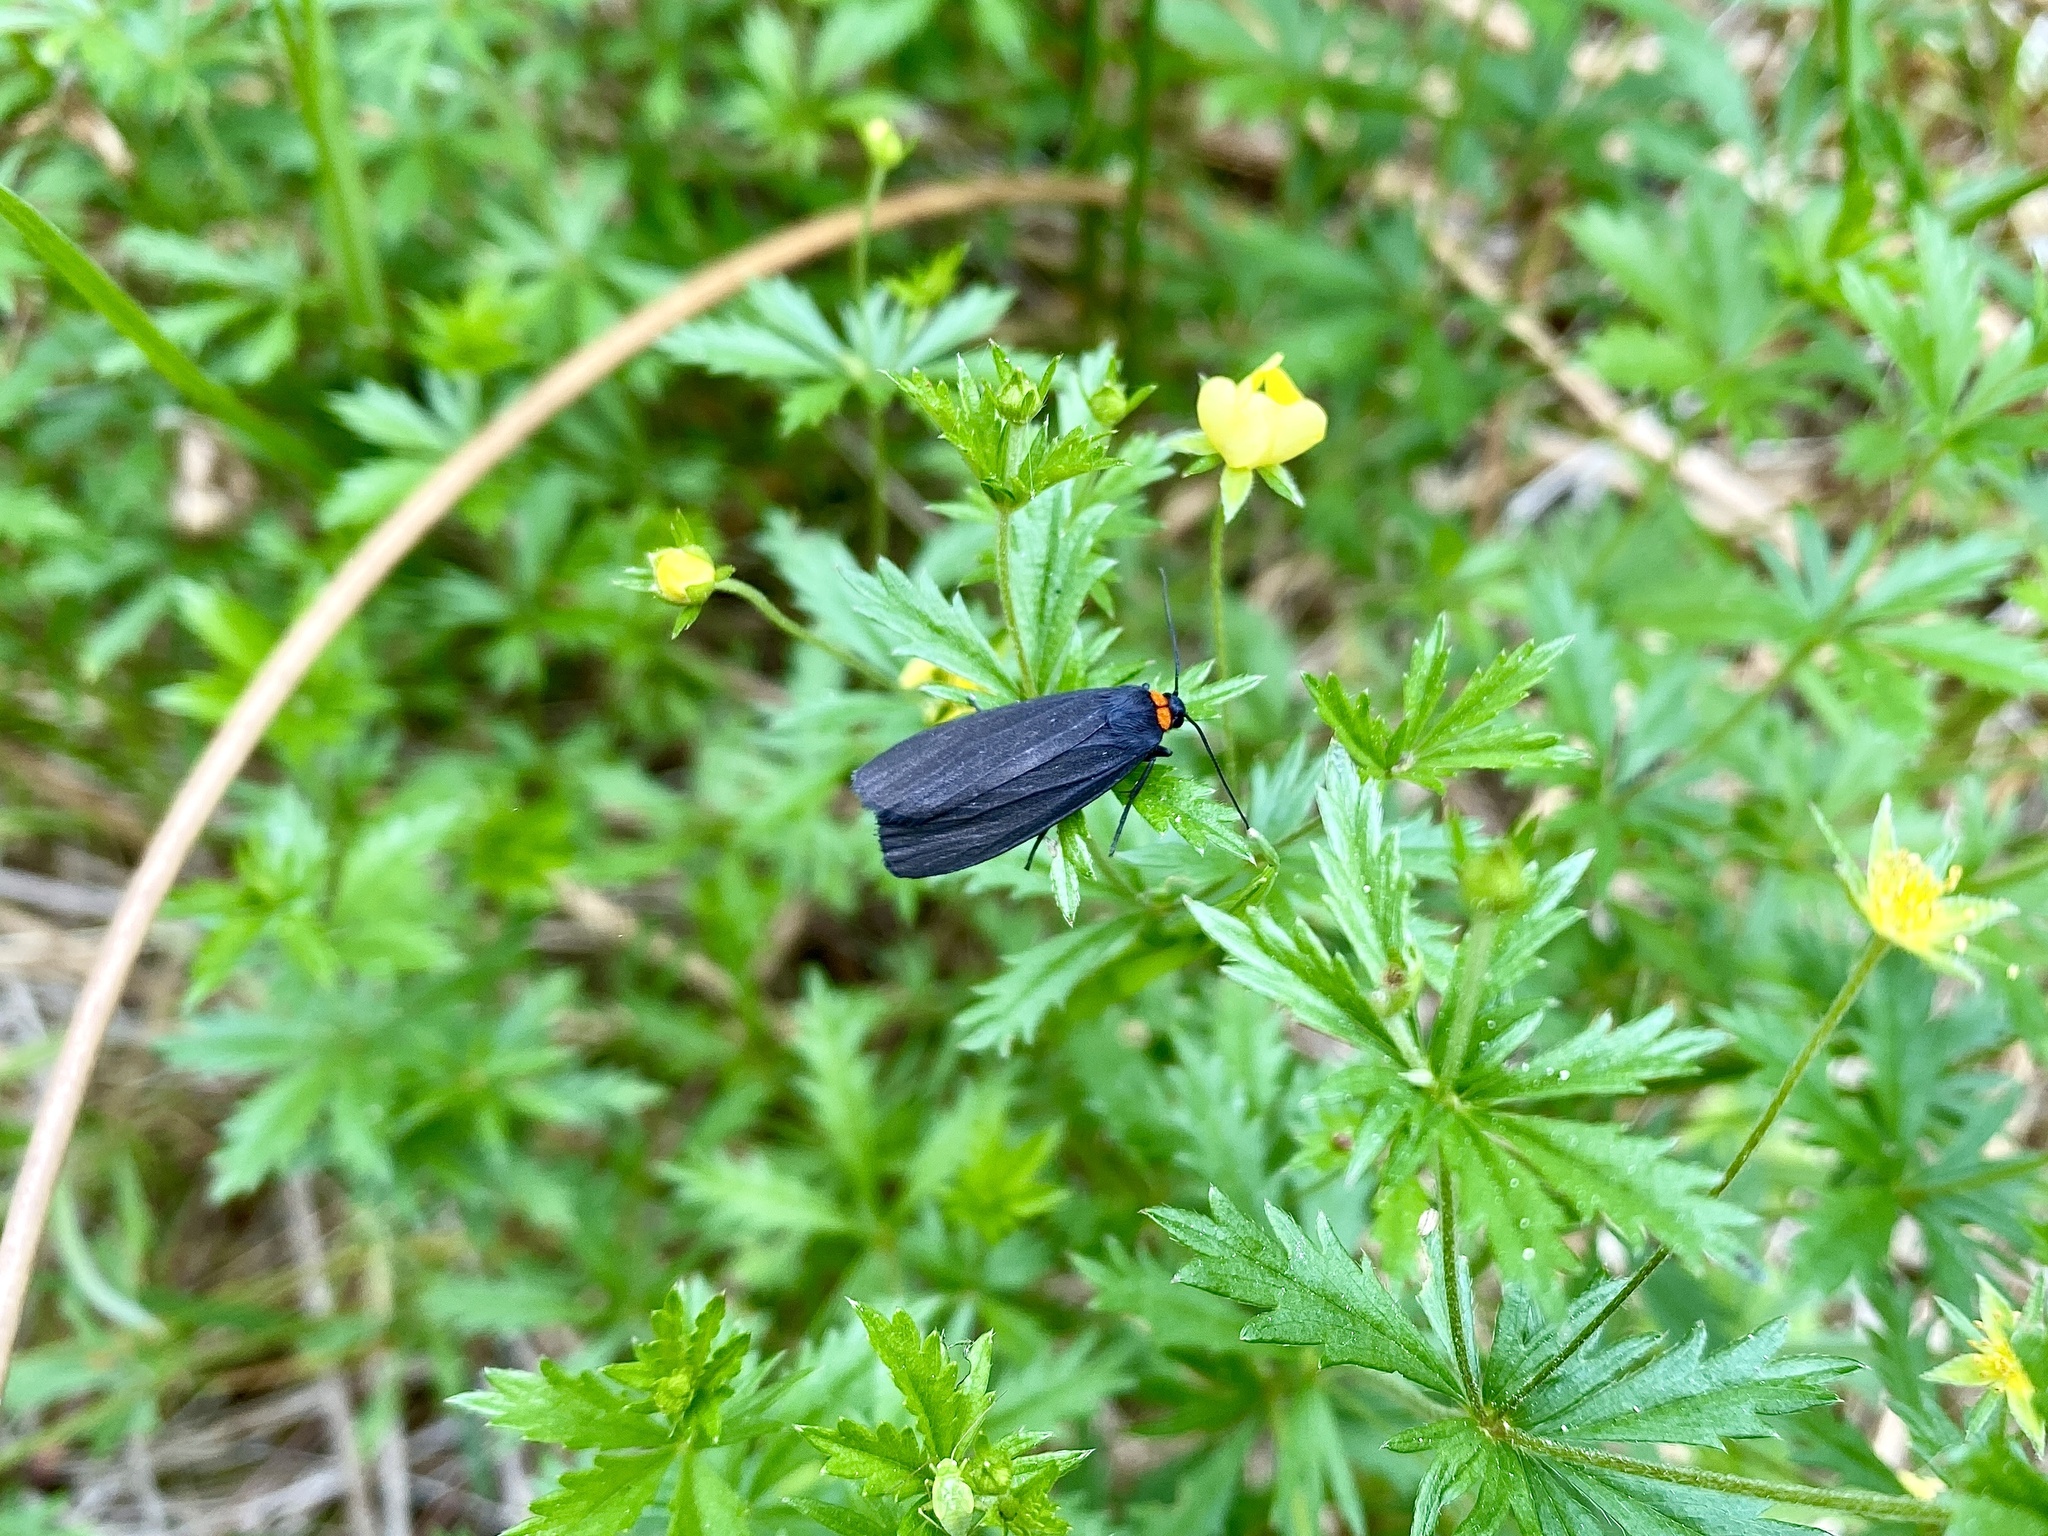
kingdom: Animalia
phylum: Arthropoda
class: Insecta
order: Lepidoptera
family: Erebidae
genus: Atolmis
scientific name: Atolmis rubricollis
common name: Red-necked footman
